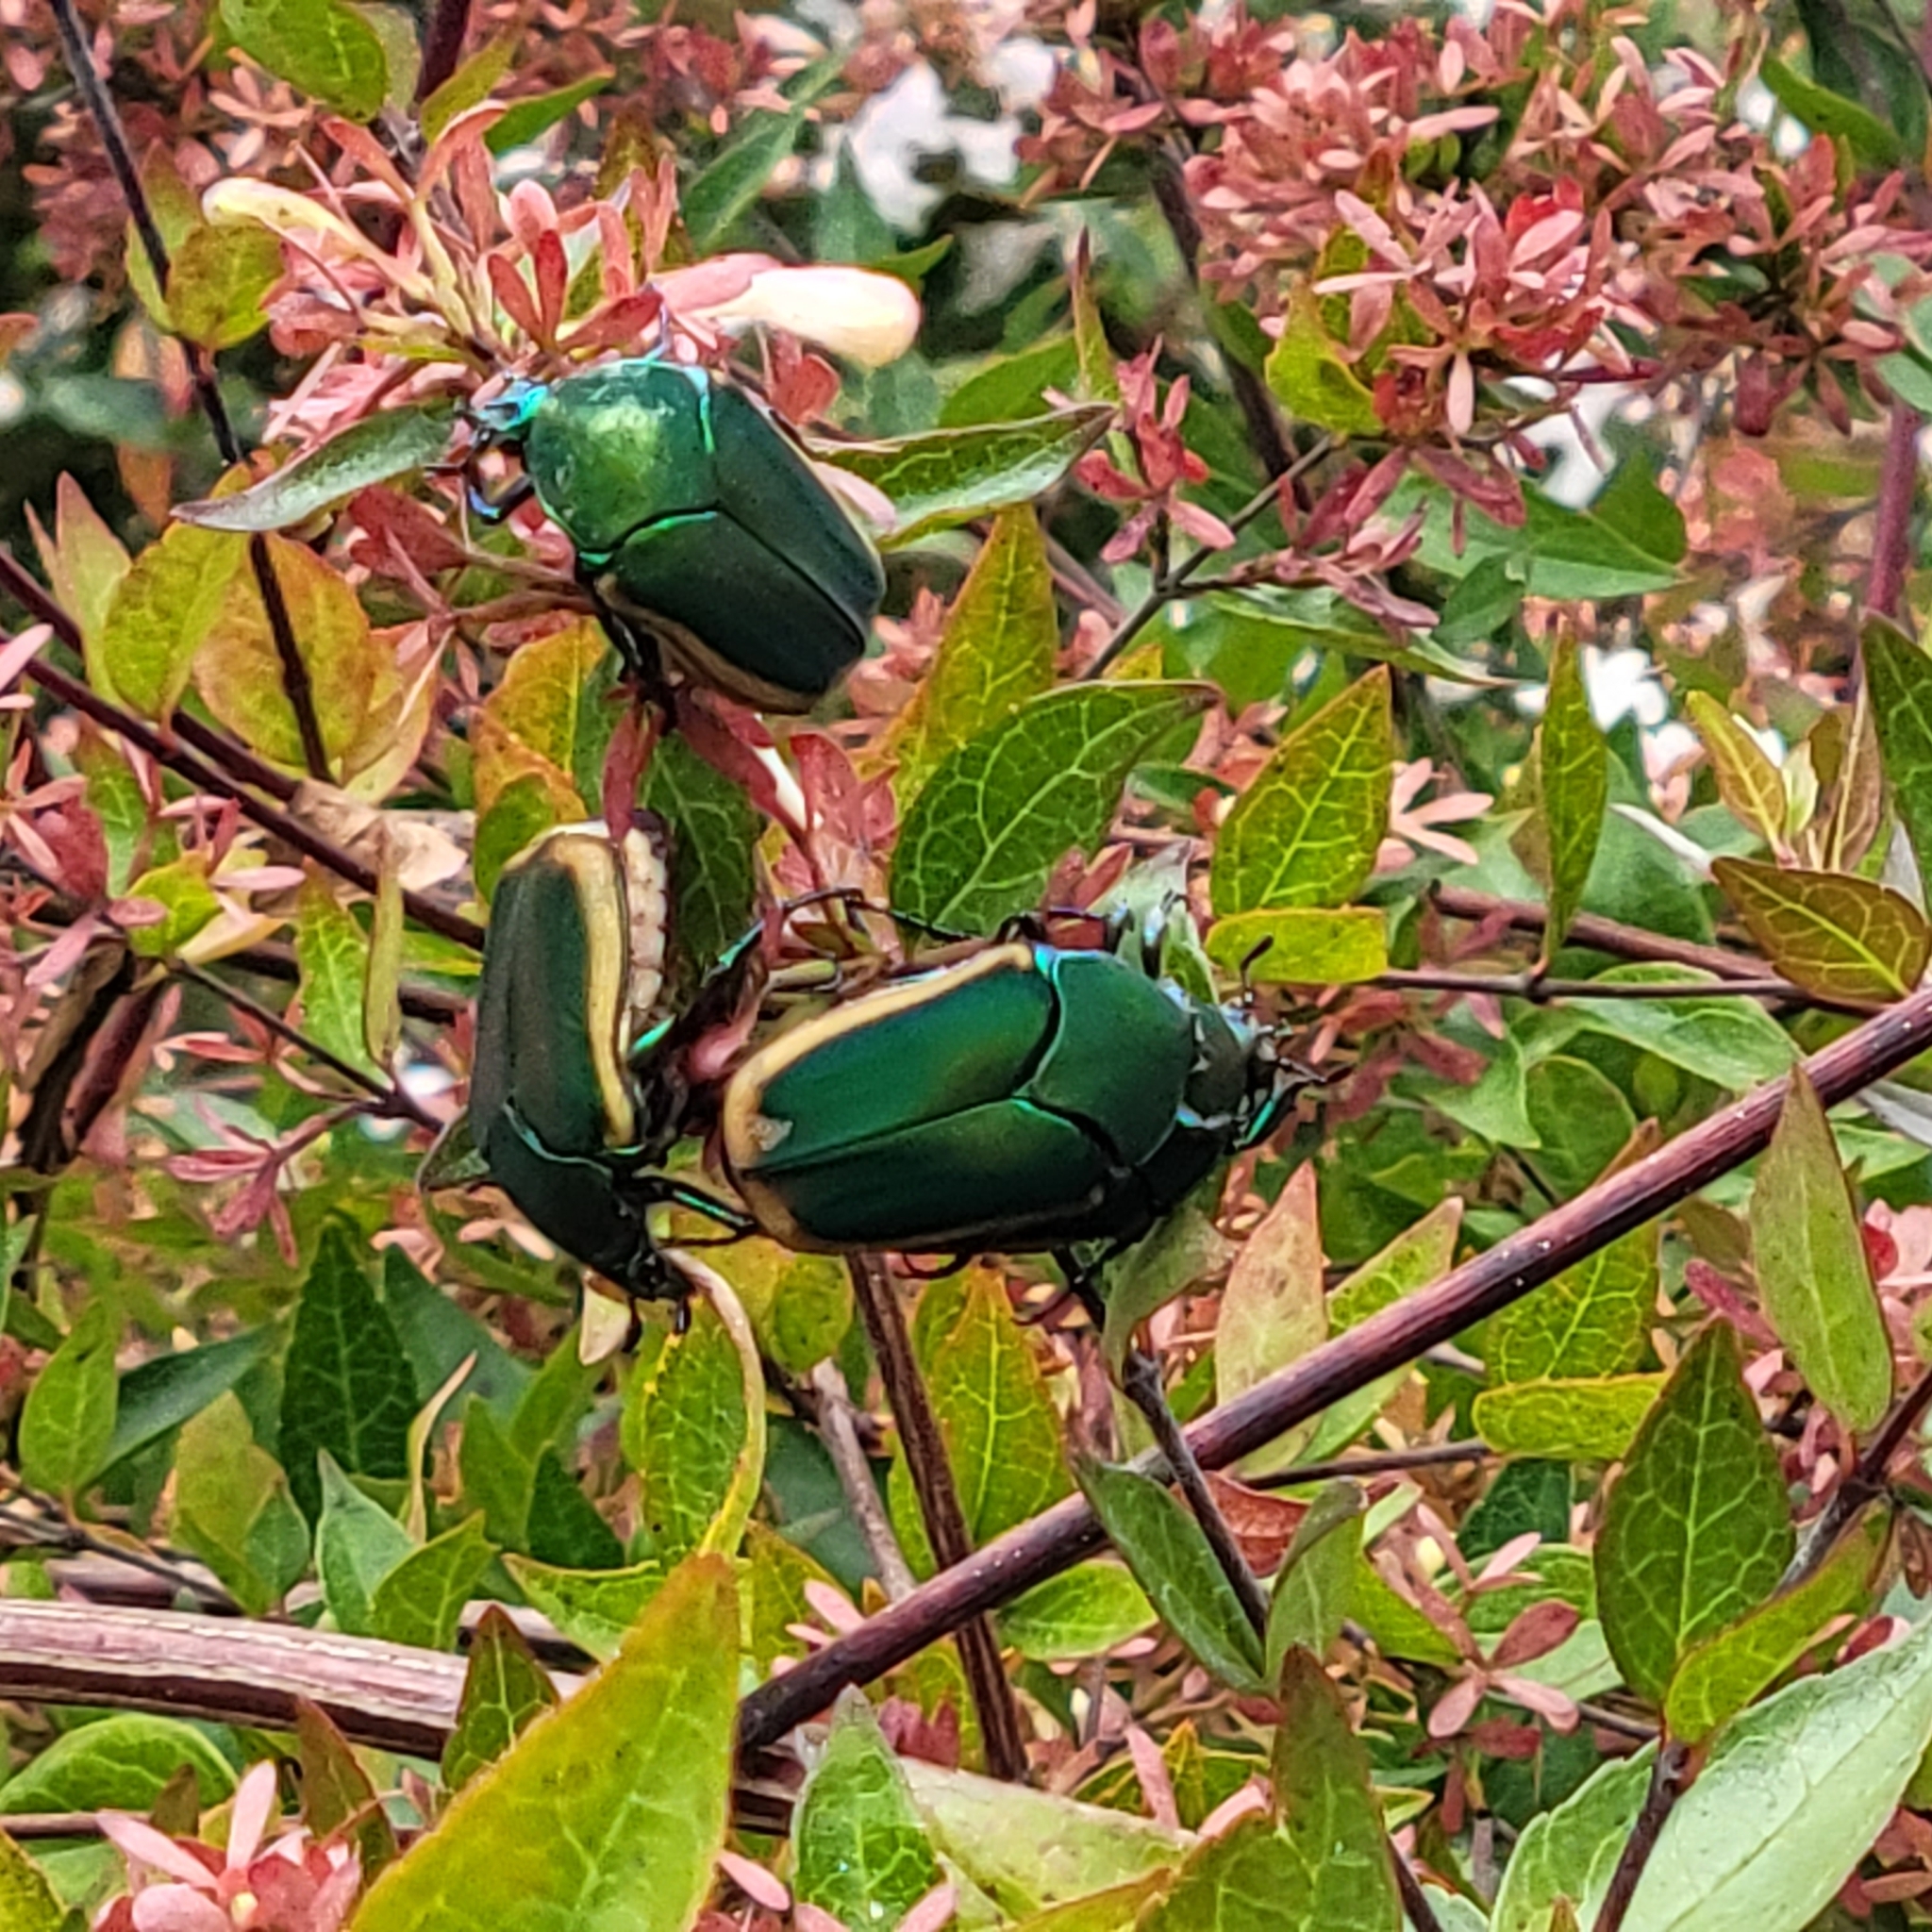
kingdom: Animalia
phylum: Arthropoda
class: Insecta
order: Coleoptera
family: Scarabaeidae
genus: Cotinis
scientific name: Cotinis mutabilis
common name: Figeater beetle
